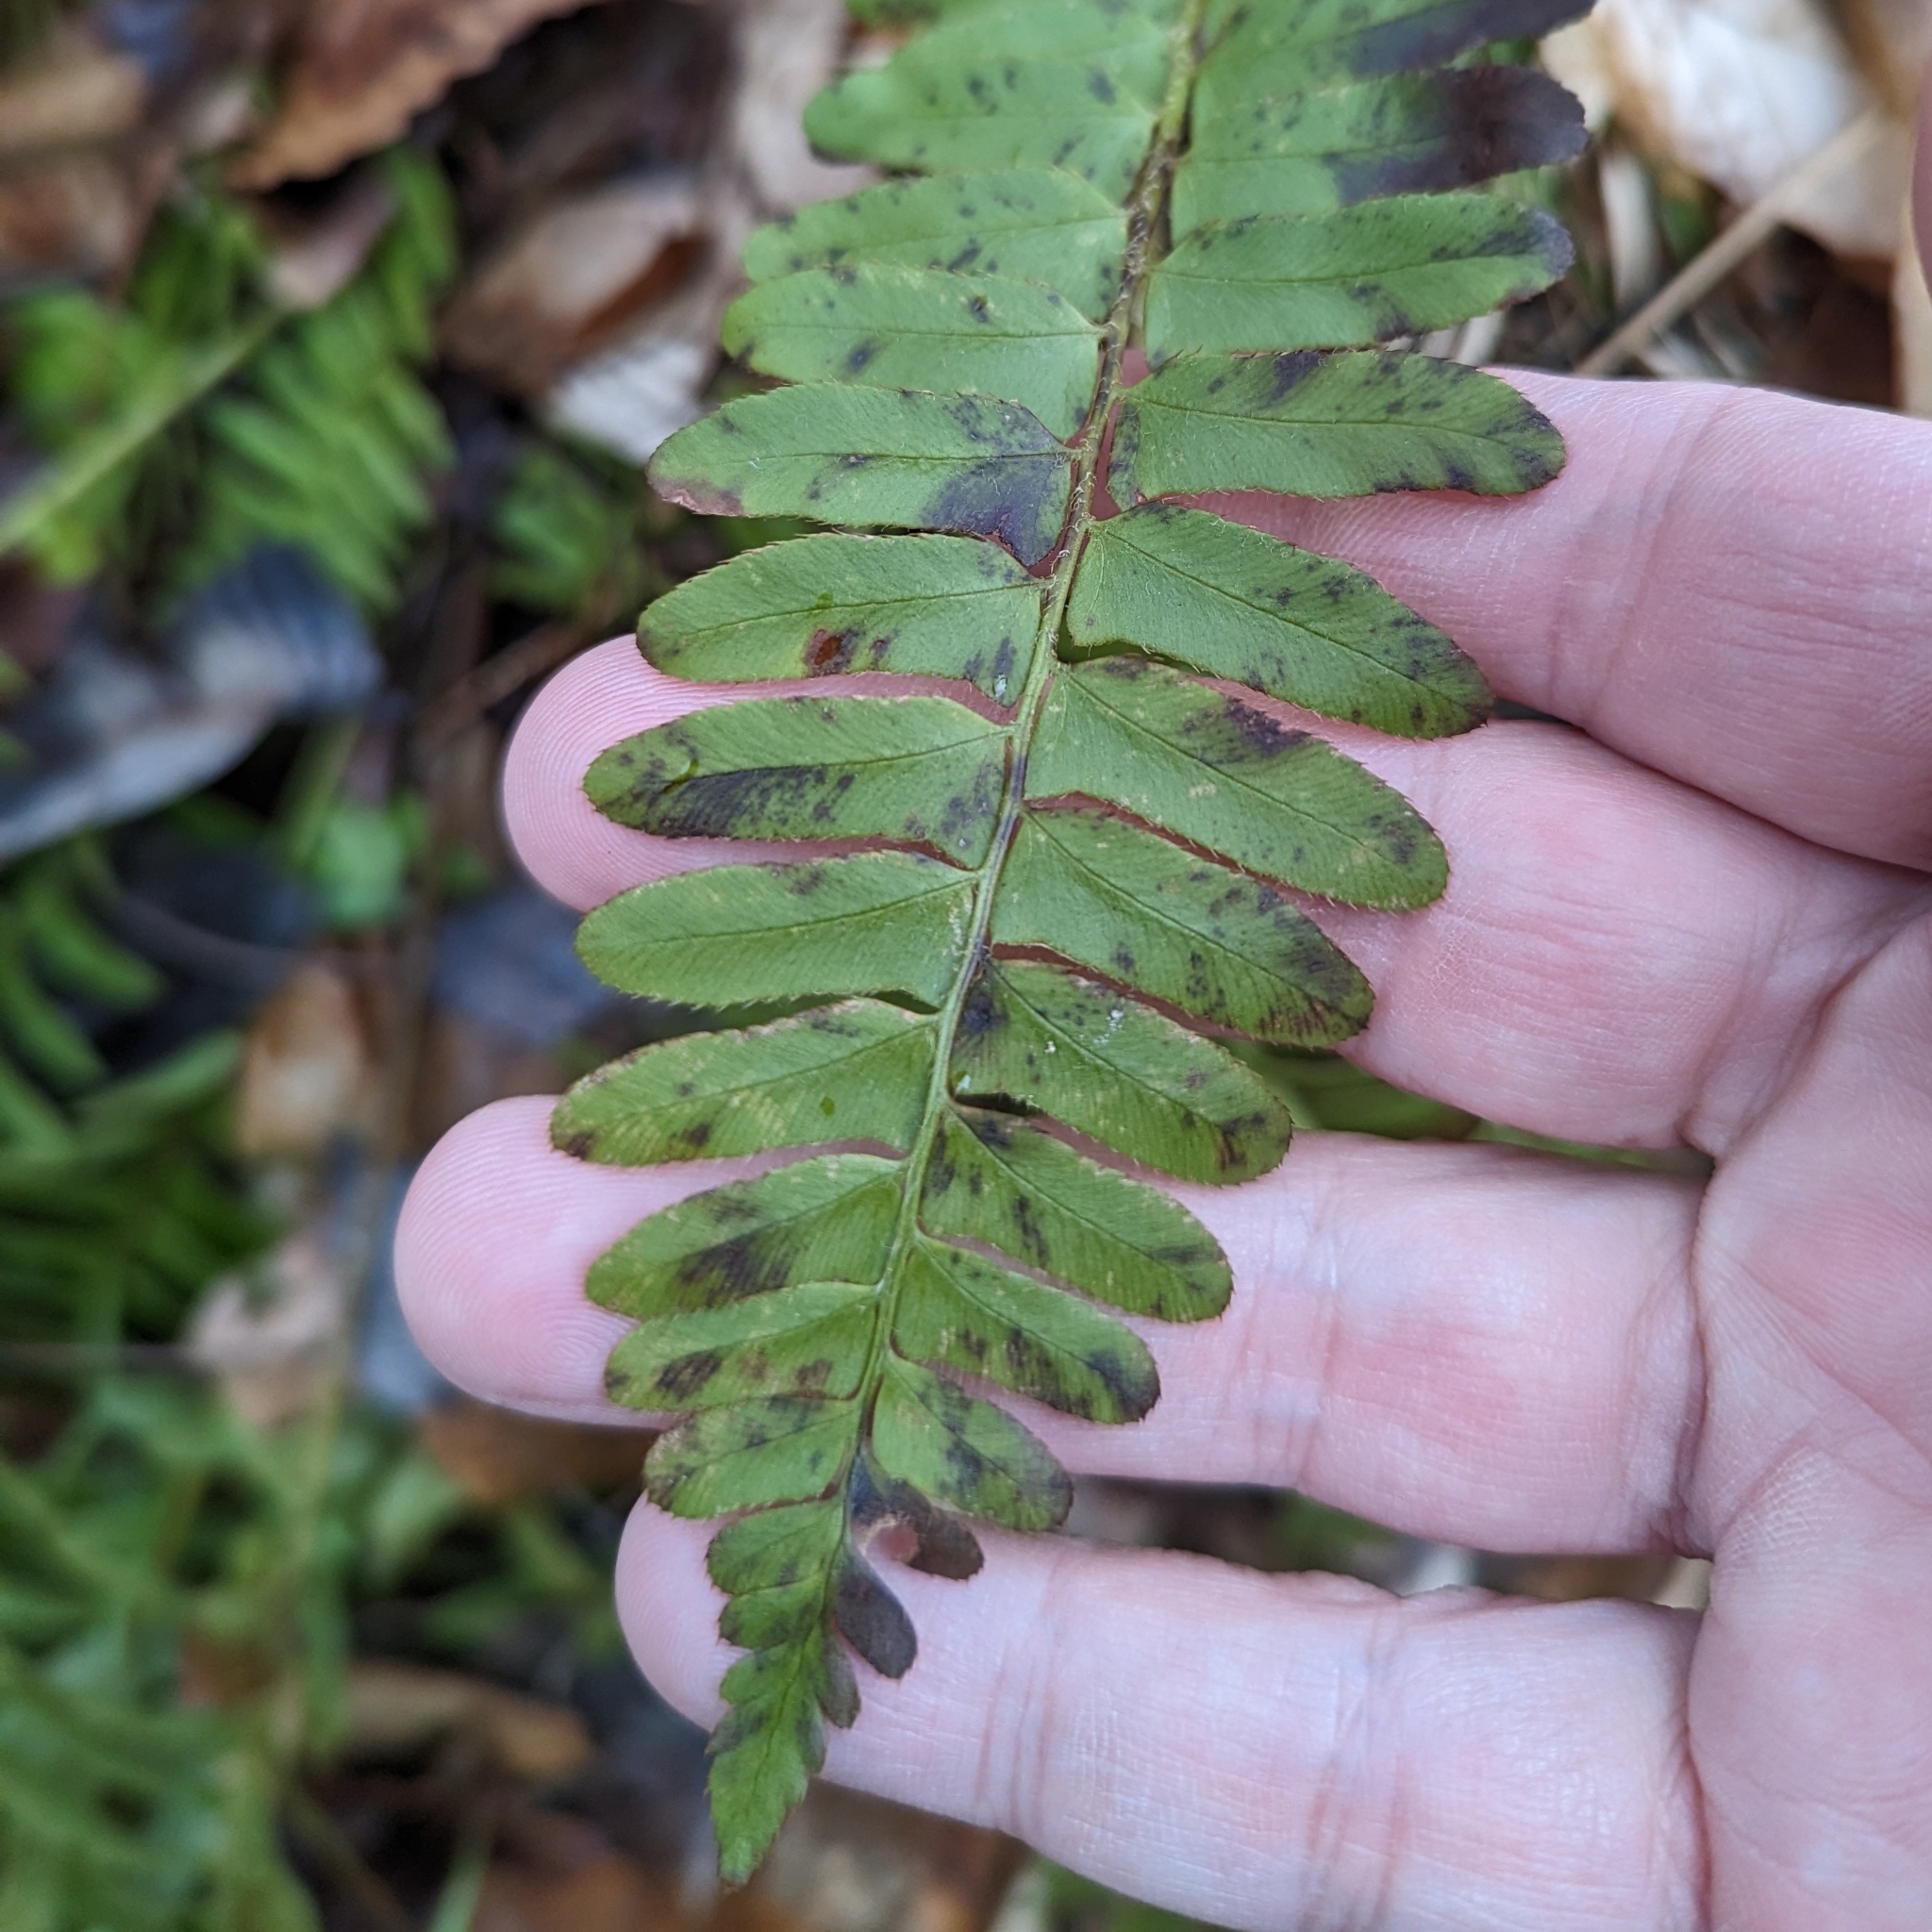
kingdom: Plantae
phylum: Tracheophyta
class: Polypodiopsida
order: Polypodiales
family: Dryopteridaceae
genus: Polystichum
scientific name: Polystichum acrostichoides
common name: Christmas fern
